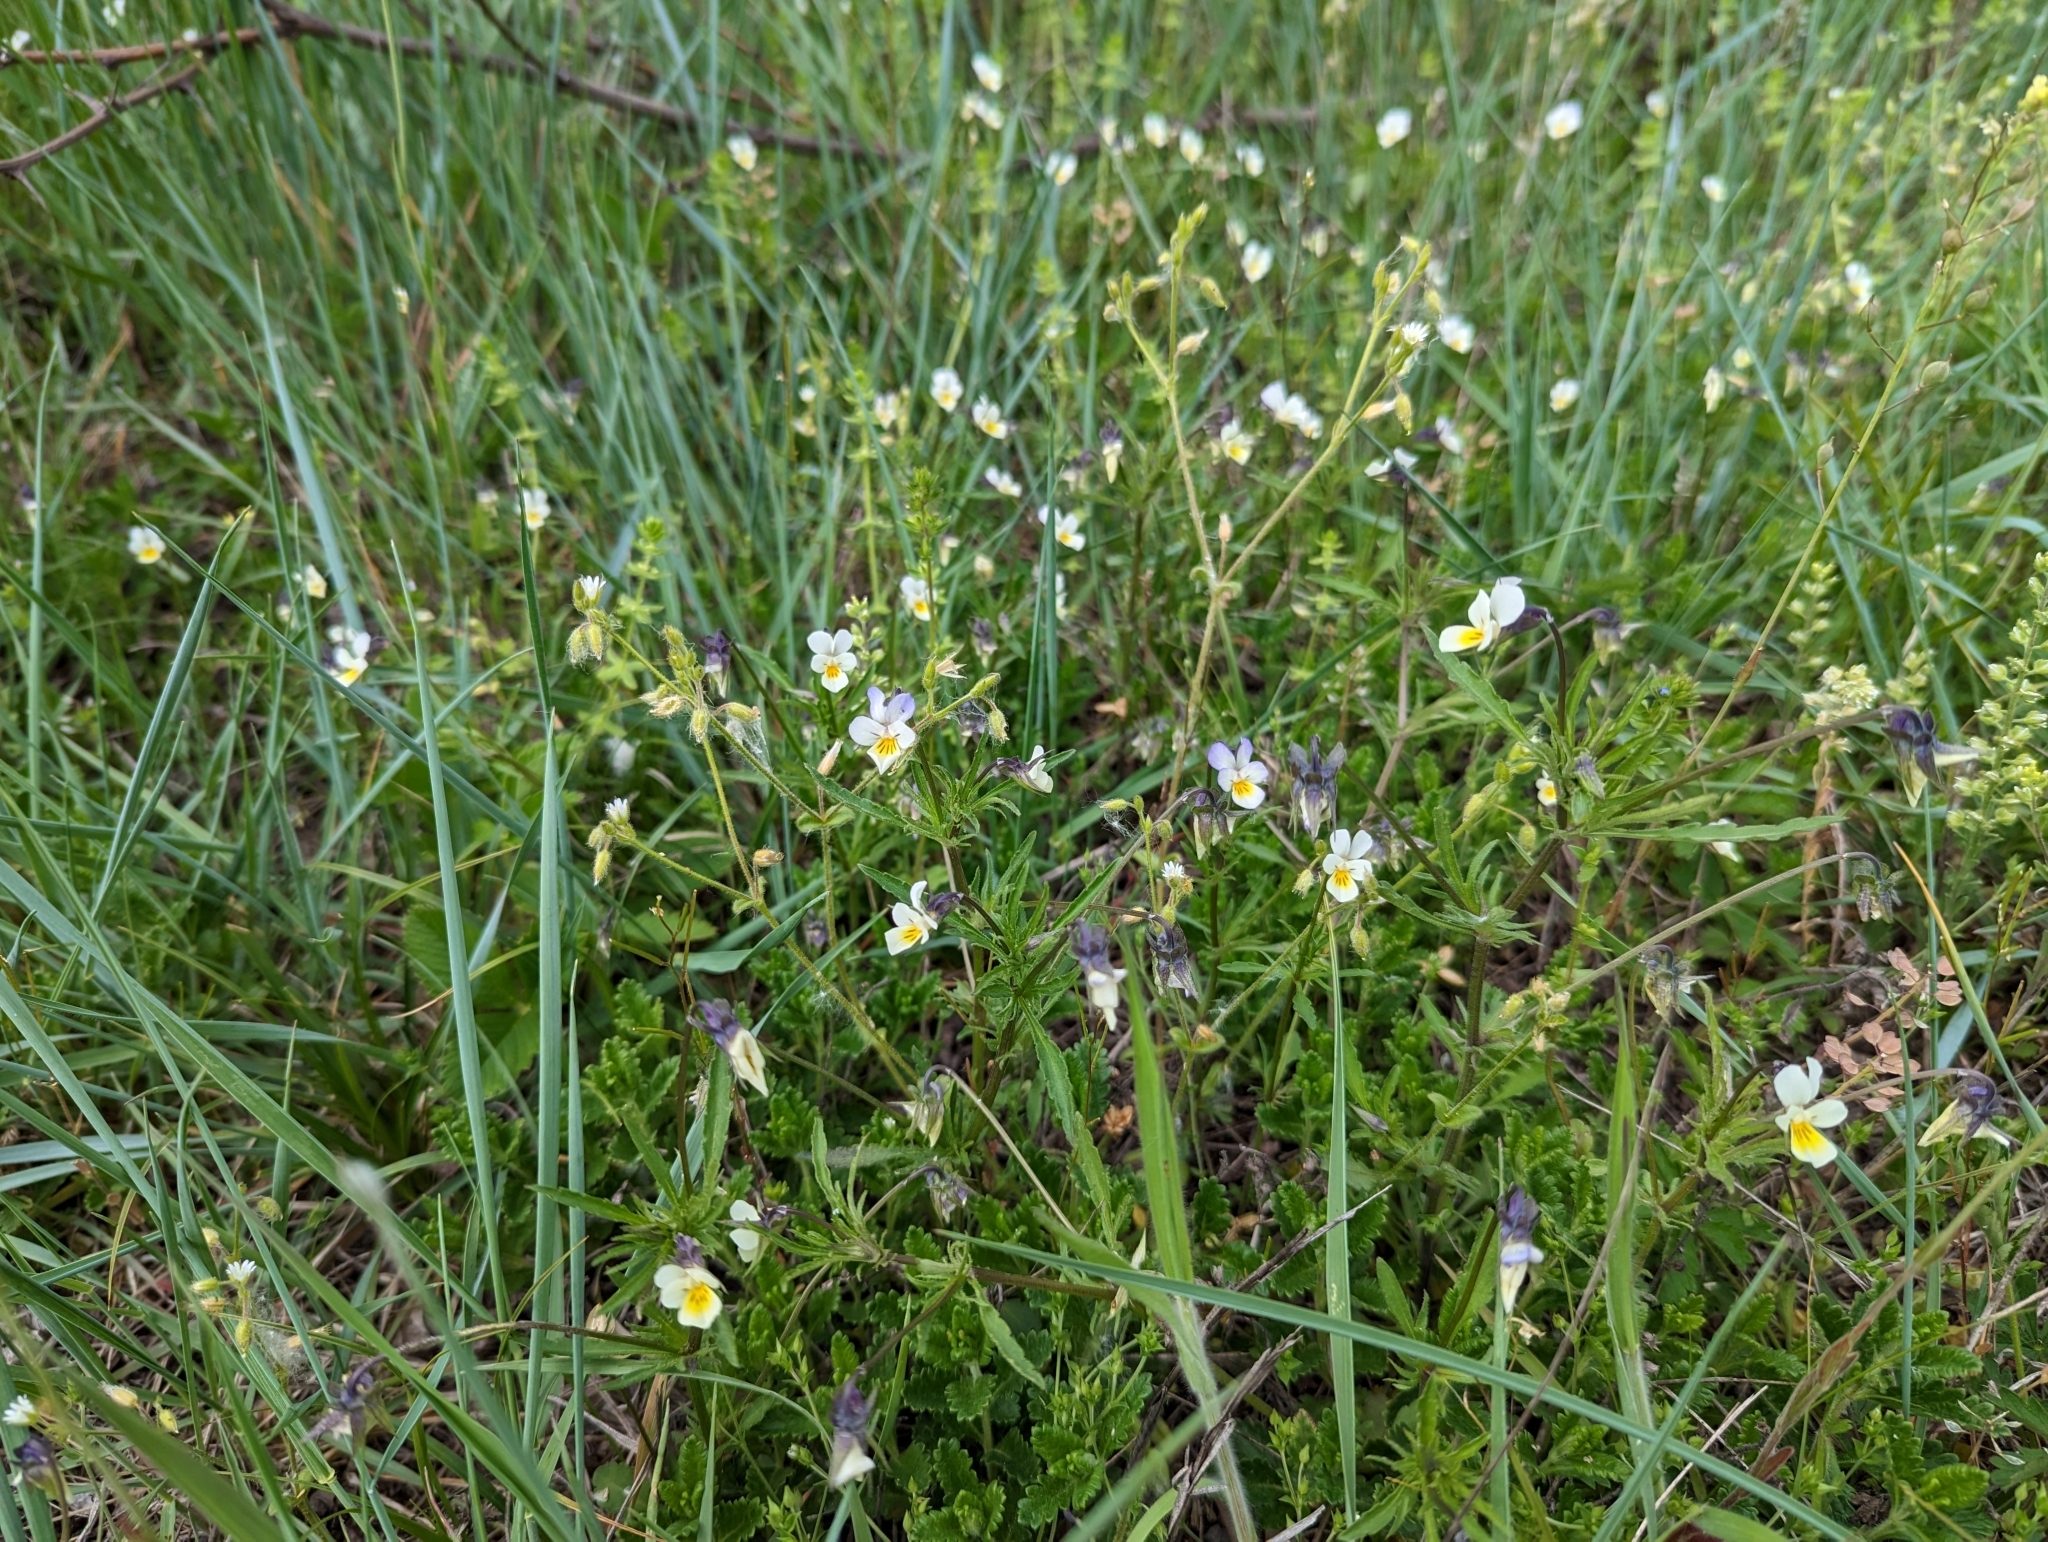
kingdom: Plantae
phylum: Tracheophyta
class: Magnoliopsida
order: Malpighiales
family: Violaceae
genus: Viola
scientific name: Viola arvensis
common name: Field pansy
